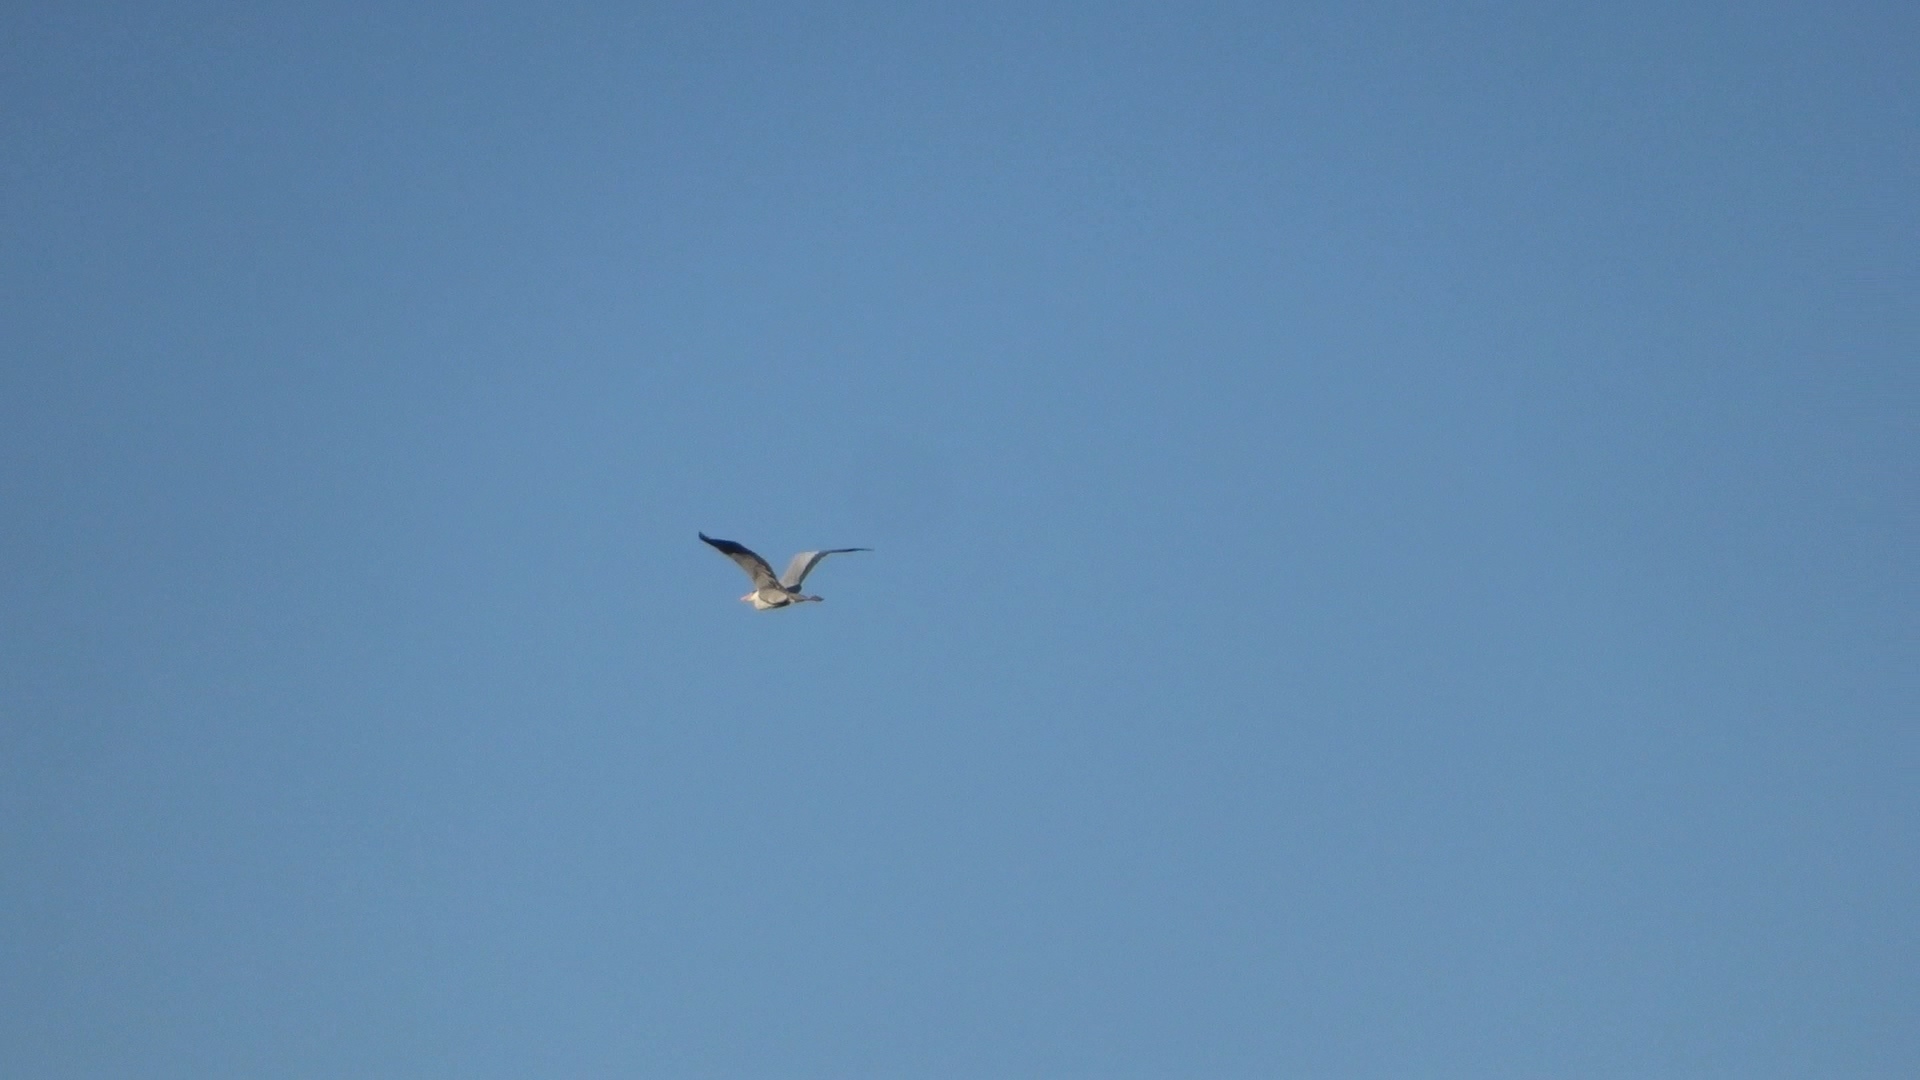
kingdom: Animalia
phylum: Chordata
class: Aves
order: Pelecaniformes
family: Ardeidae
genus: Ardea
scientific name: Ardea cinerea
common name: Grey heron
